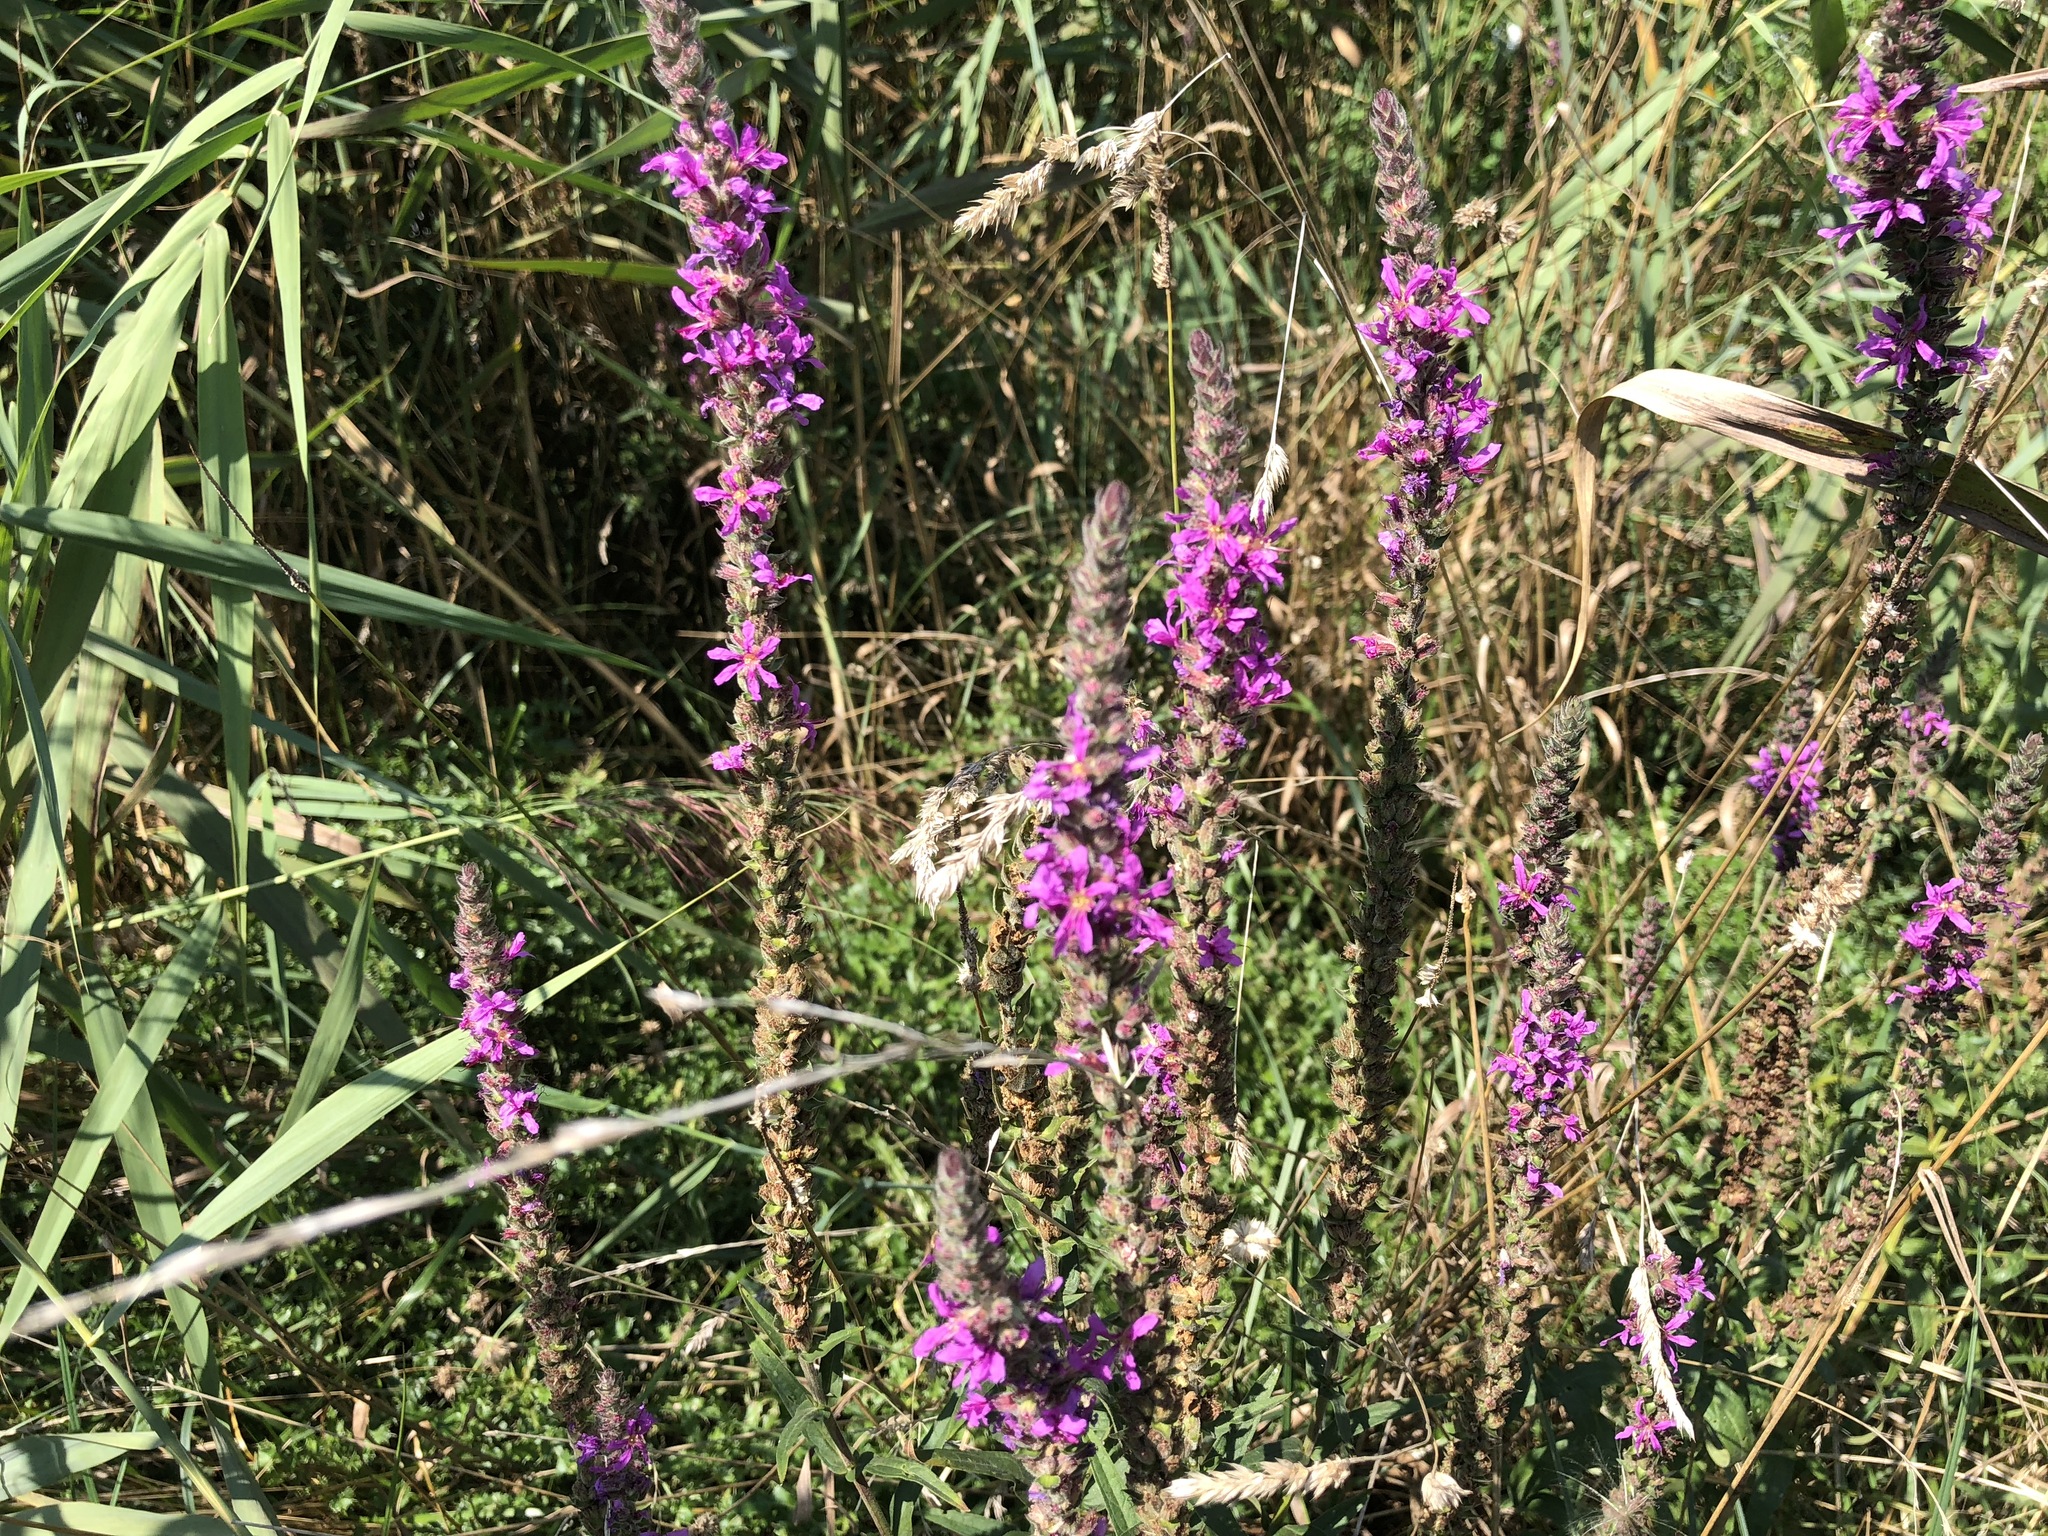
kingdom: Plantae
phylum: Tracheophyta
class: Magnoliopsida
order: Myrtales
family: Lythraceae
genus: Lythrum
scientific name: Lythrum salicaria
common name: Purple loosestrife
